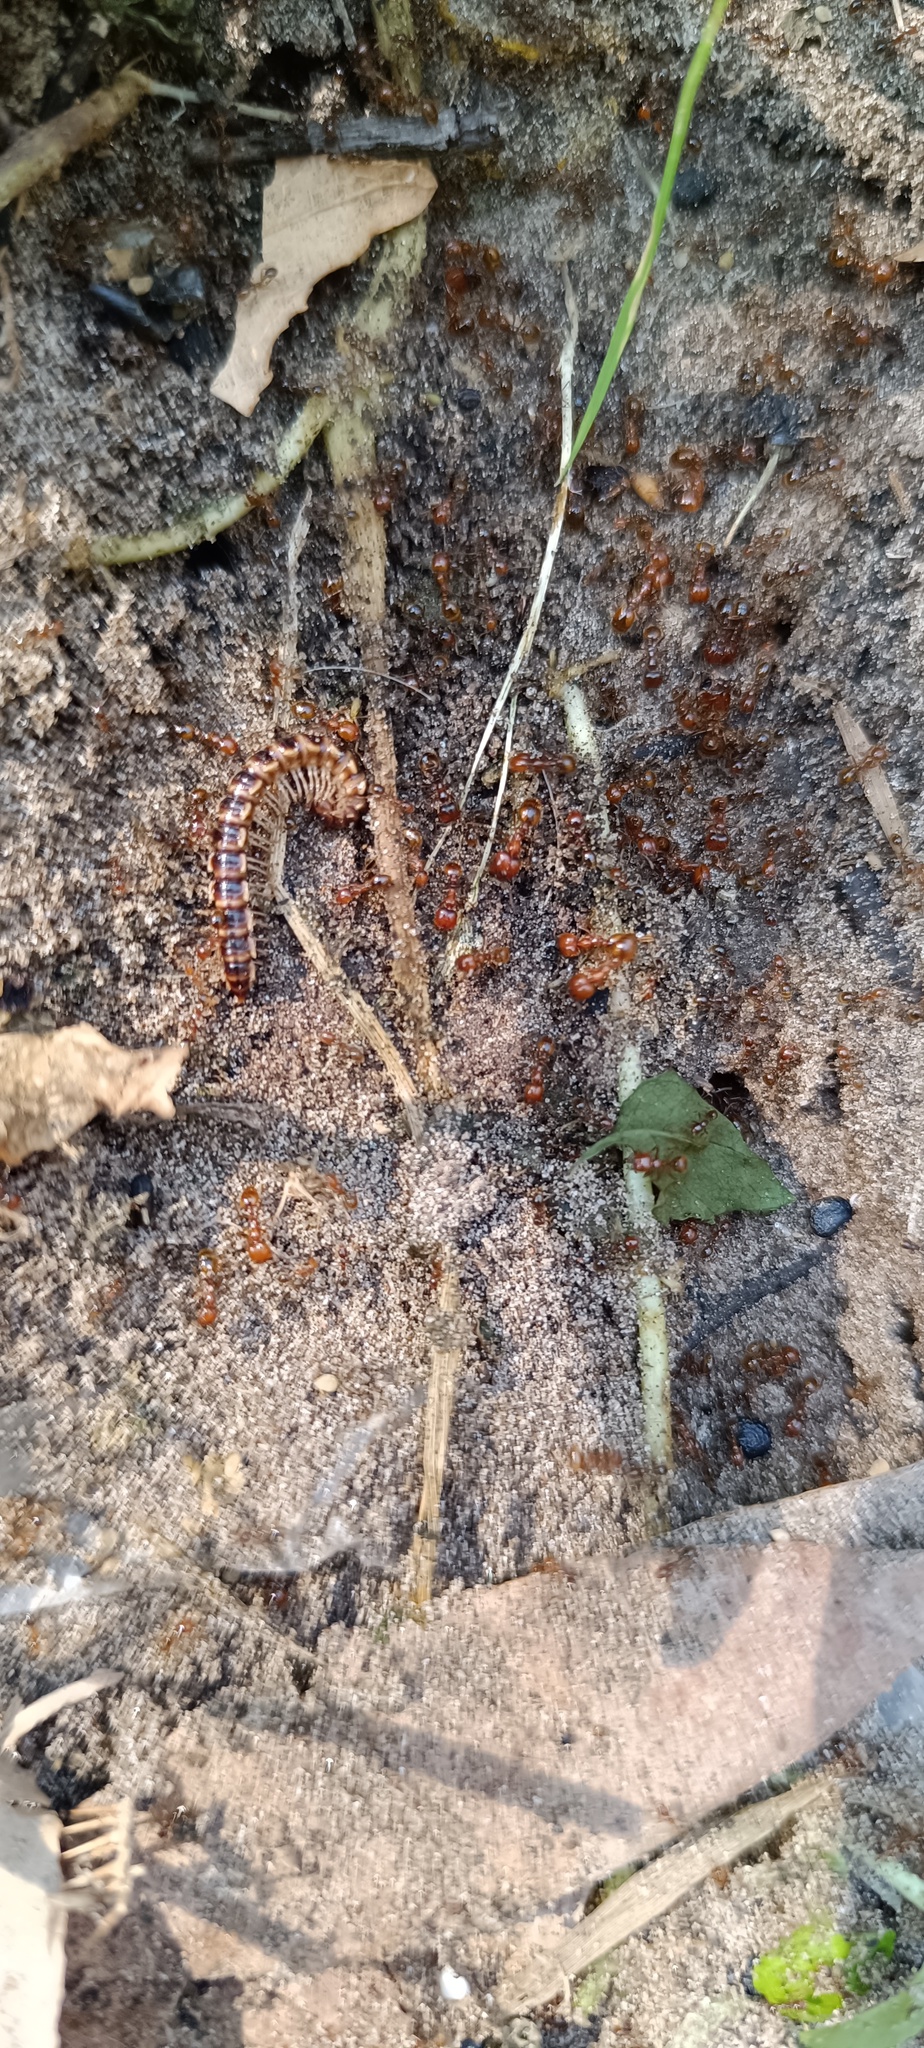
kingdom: Animalia
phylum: Arthropoda
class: Diplopoda
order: Polydesmida
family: Paradoxosomatidae
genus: Oxidus
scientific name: Oxidus gracilis
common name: Greenhouse millipede
